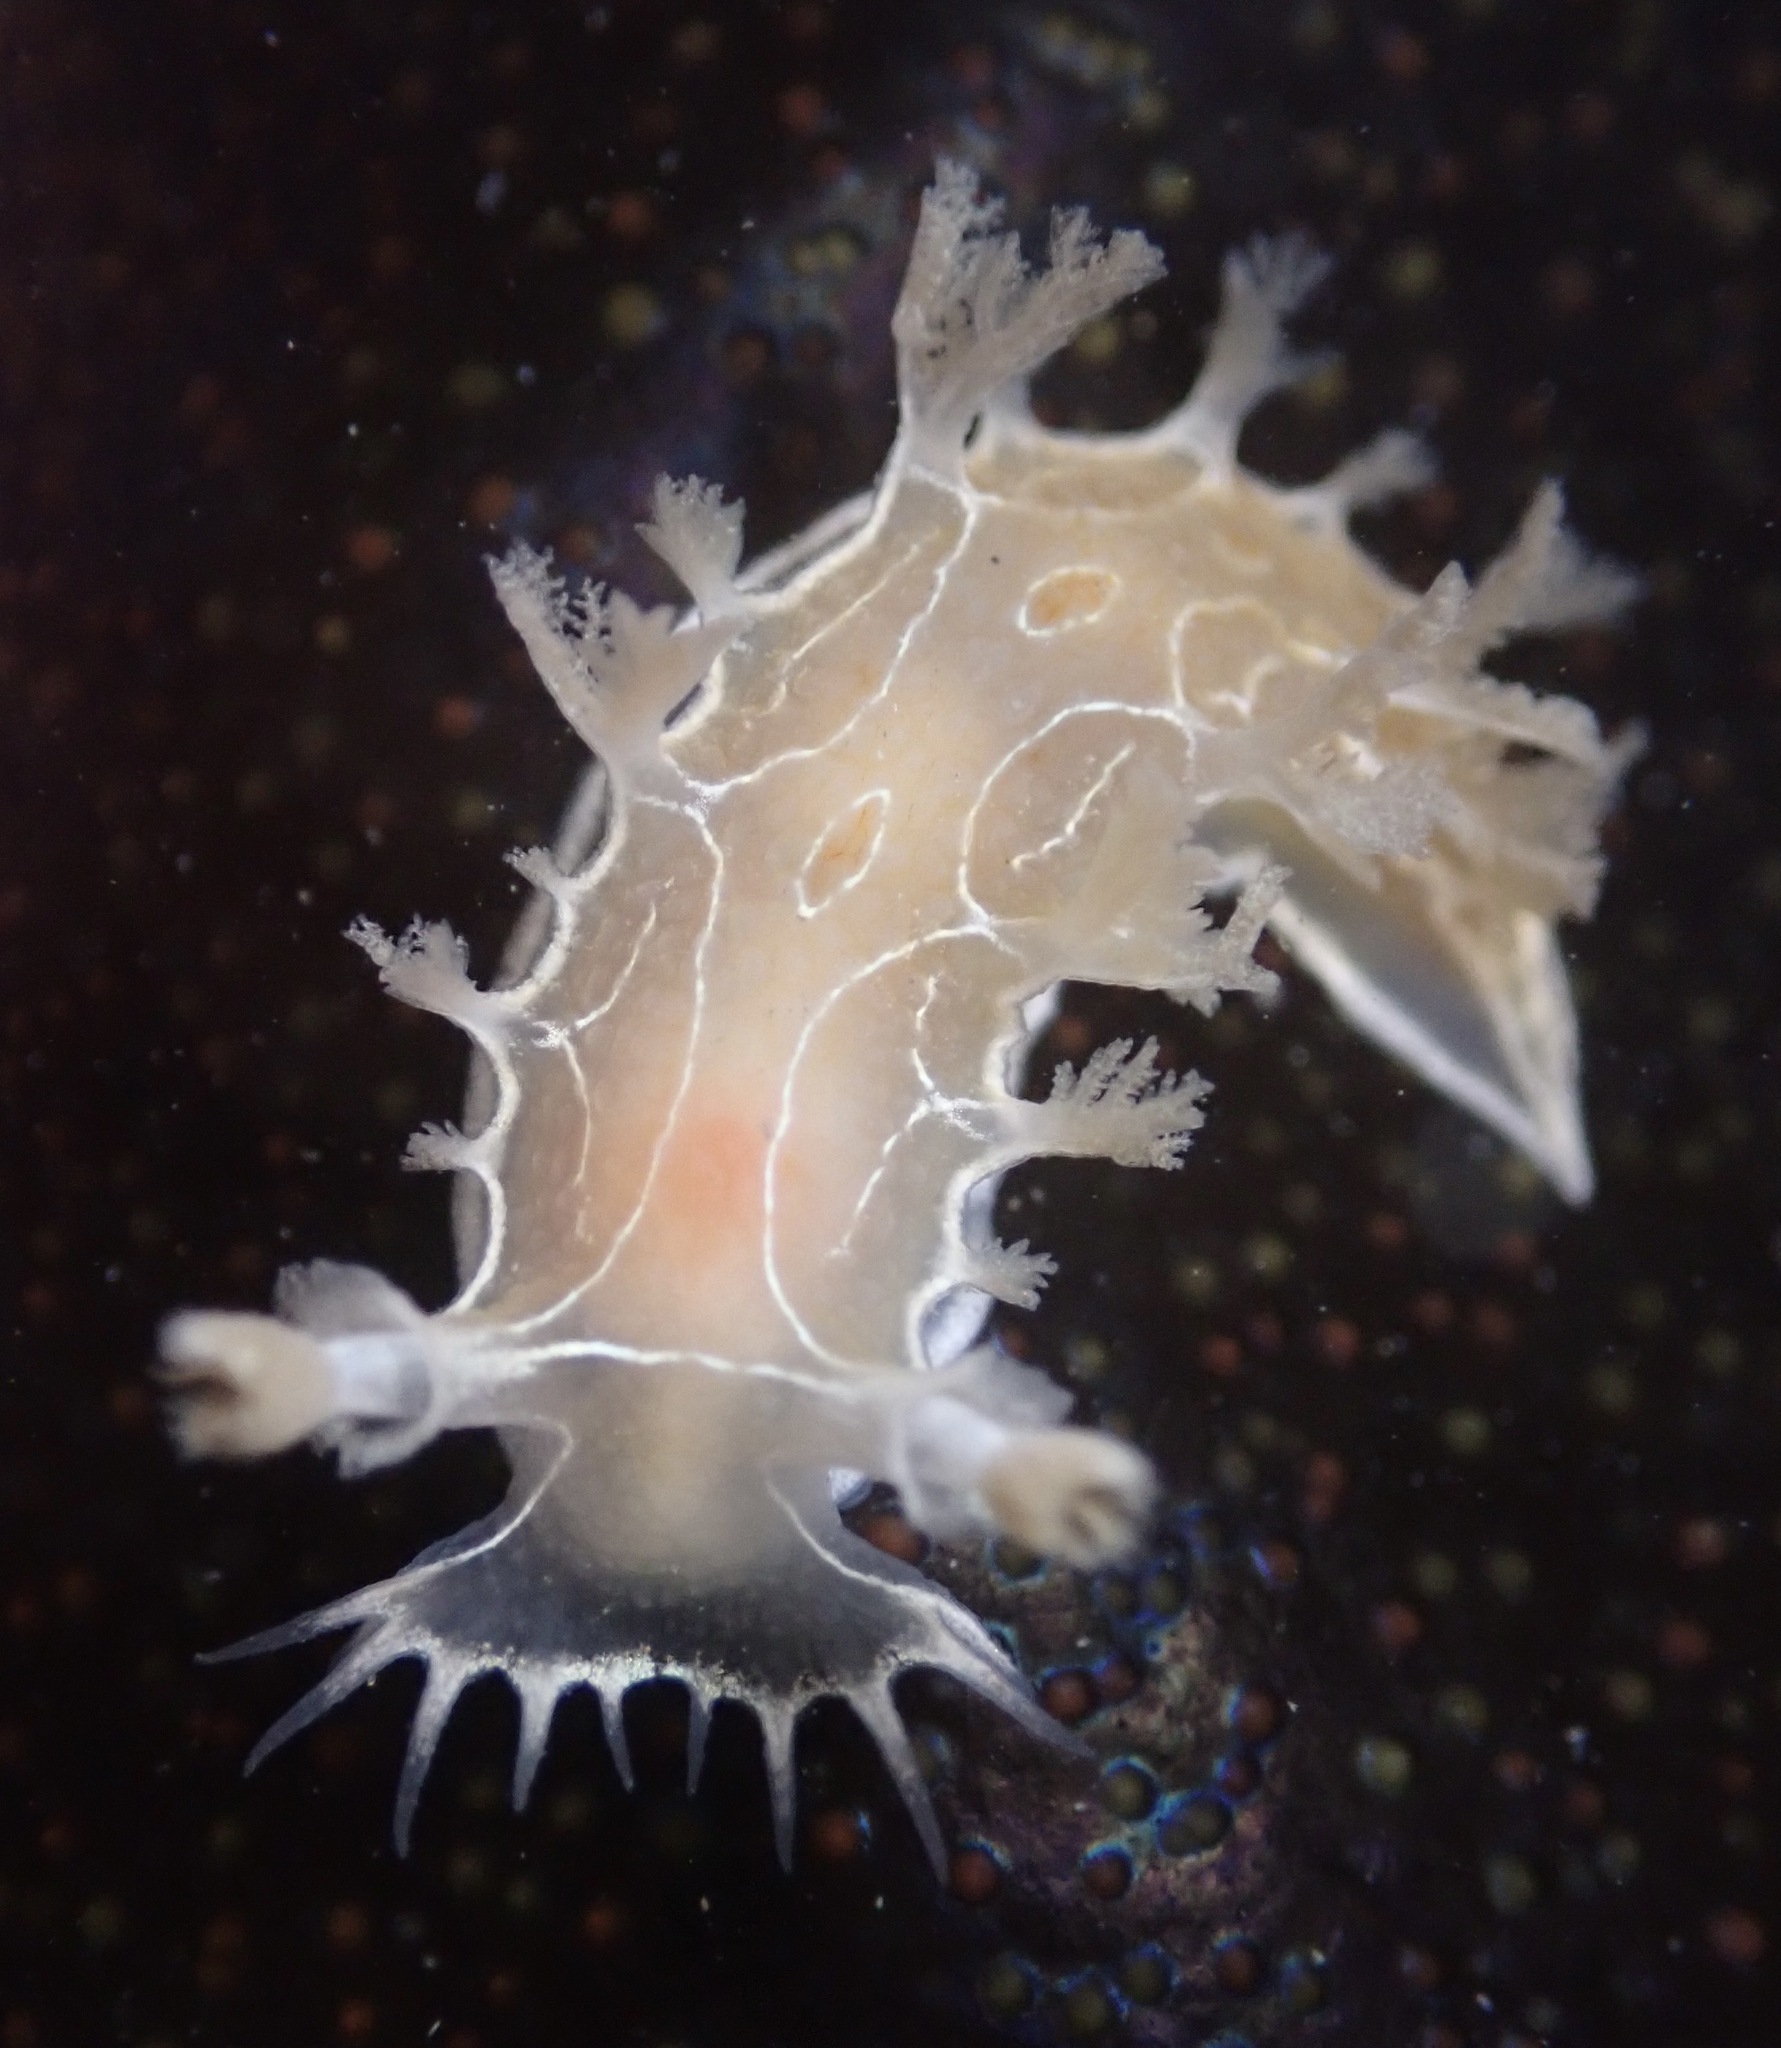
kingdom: Animalia
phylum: Mollusca
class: Gastropoda
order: Nudibranchia
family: Tritoniidae
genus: Tritonia
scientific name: Tritonia festiva
